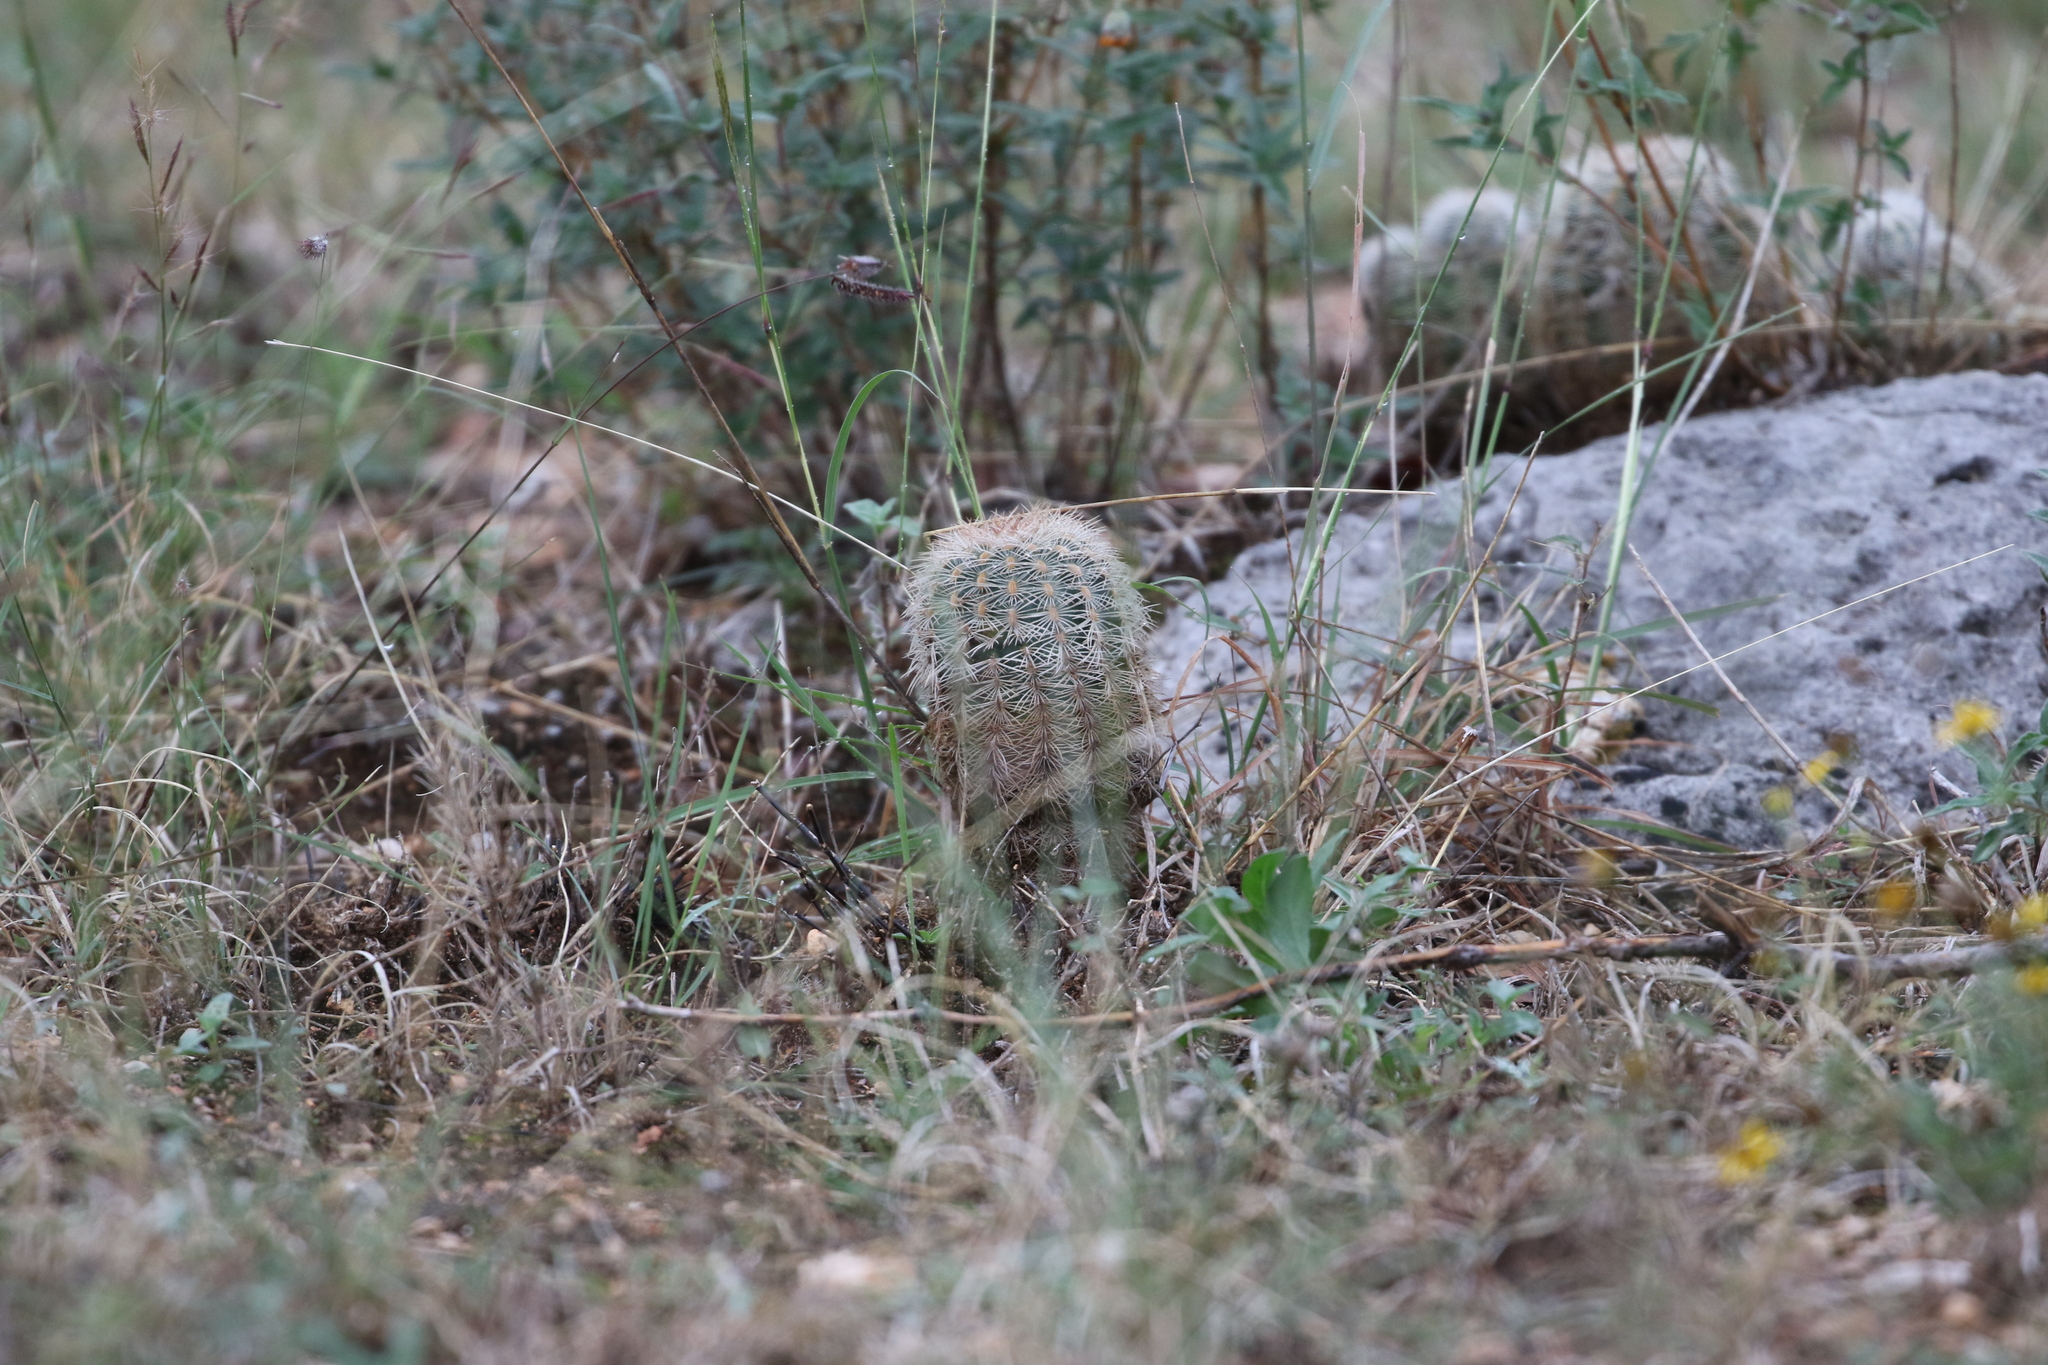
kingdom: Plantae
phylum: Tracheophyta
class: Magnoliopsida
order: Caryophyllales
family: Cactaceae
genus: Echinocereus
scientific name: Echinocereus reichenbachii
